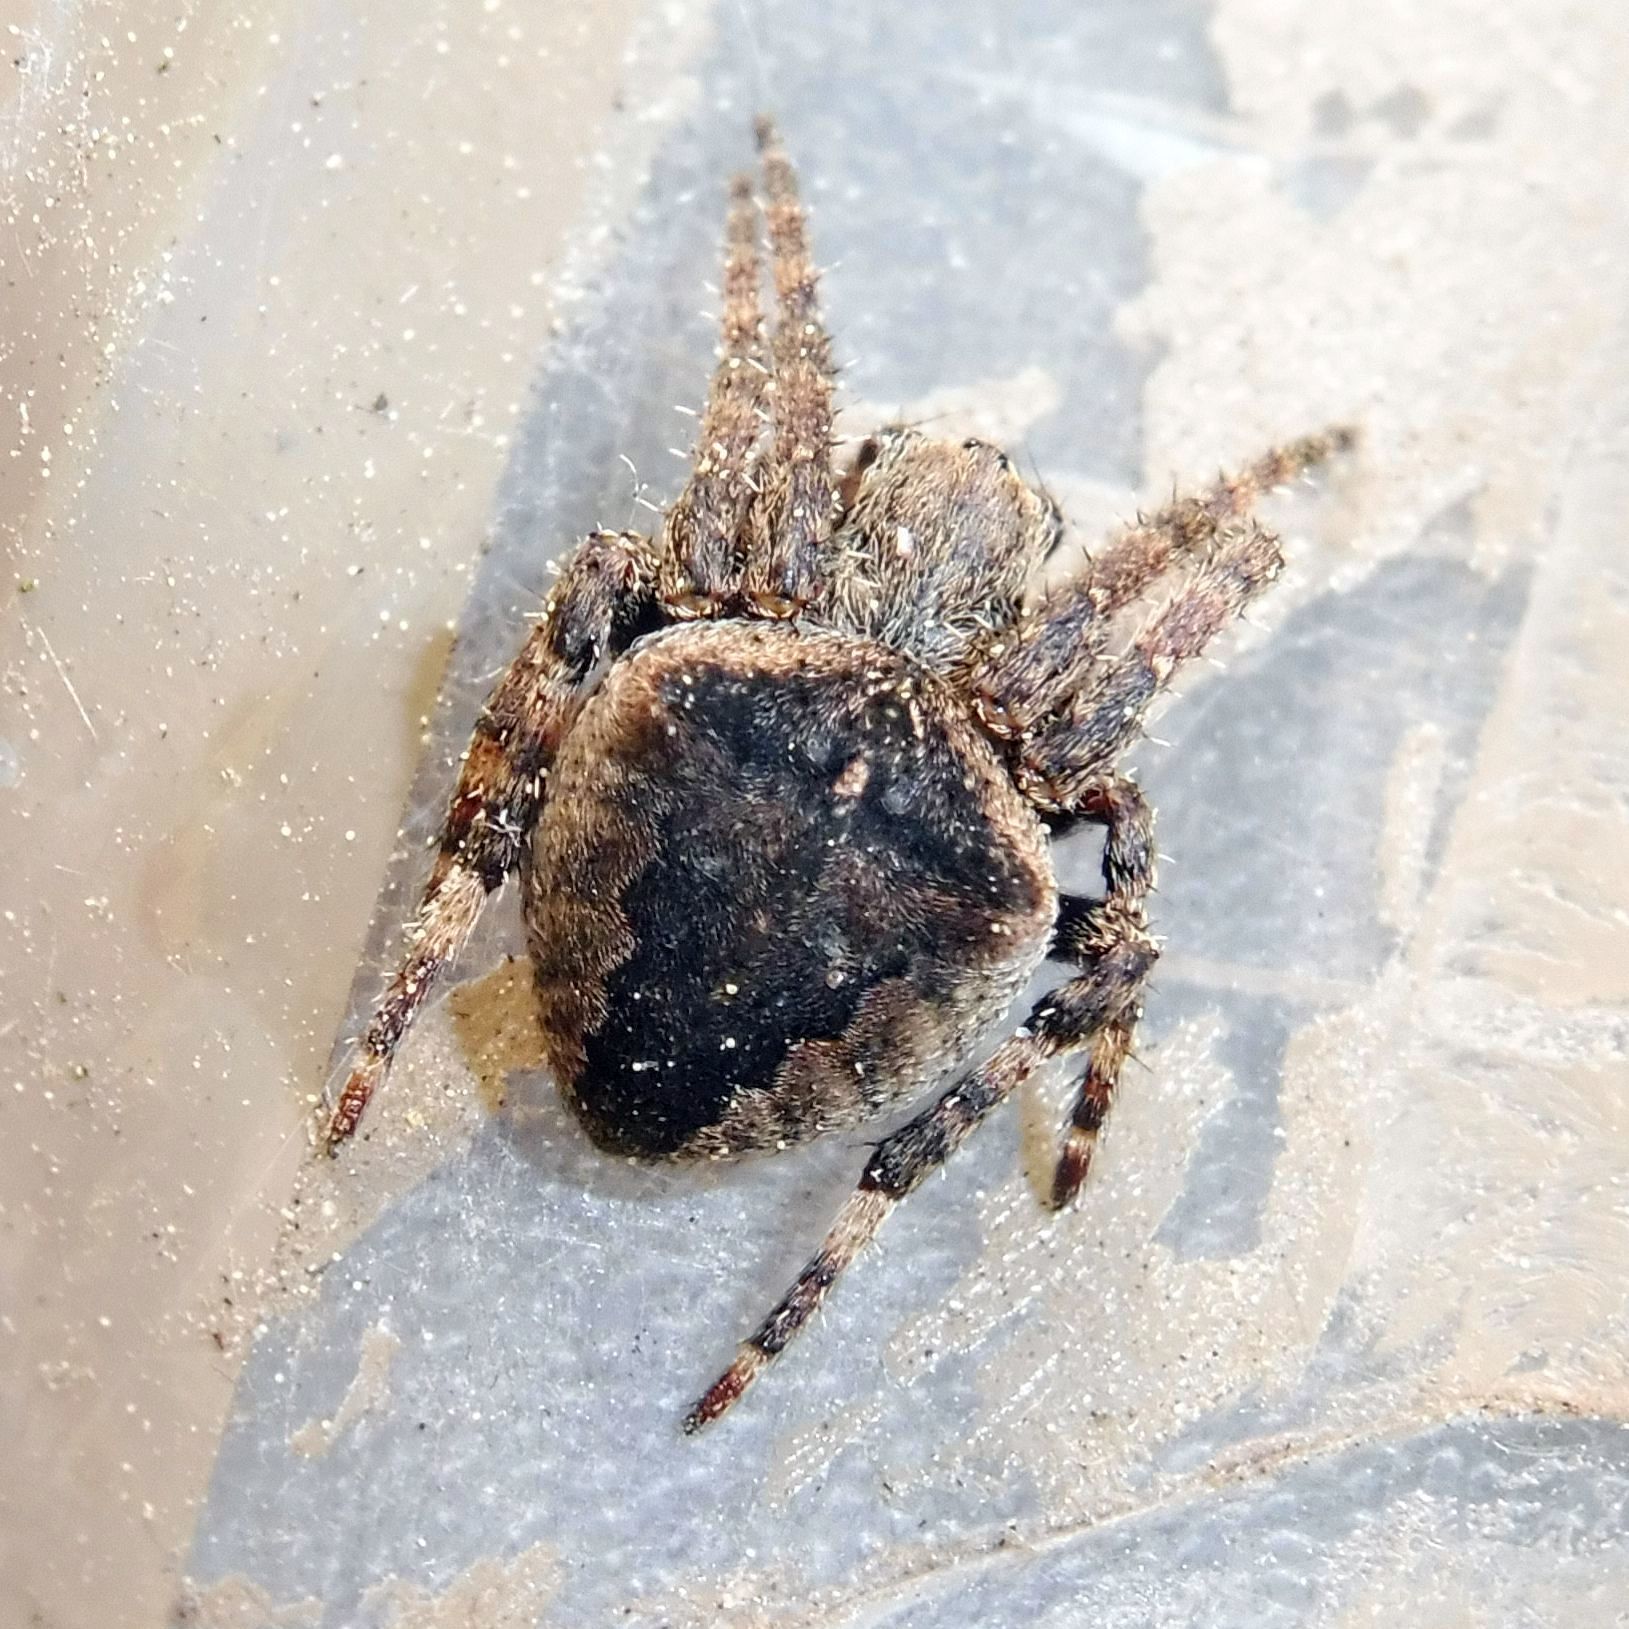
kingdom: Animalia
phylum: Arthropoda
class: Arachnida
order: Araneae
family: Araneidae
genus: Gibbaranea
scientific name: Gibbaranea gibbosa
